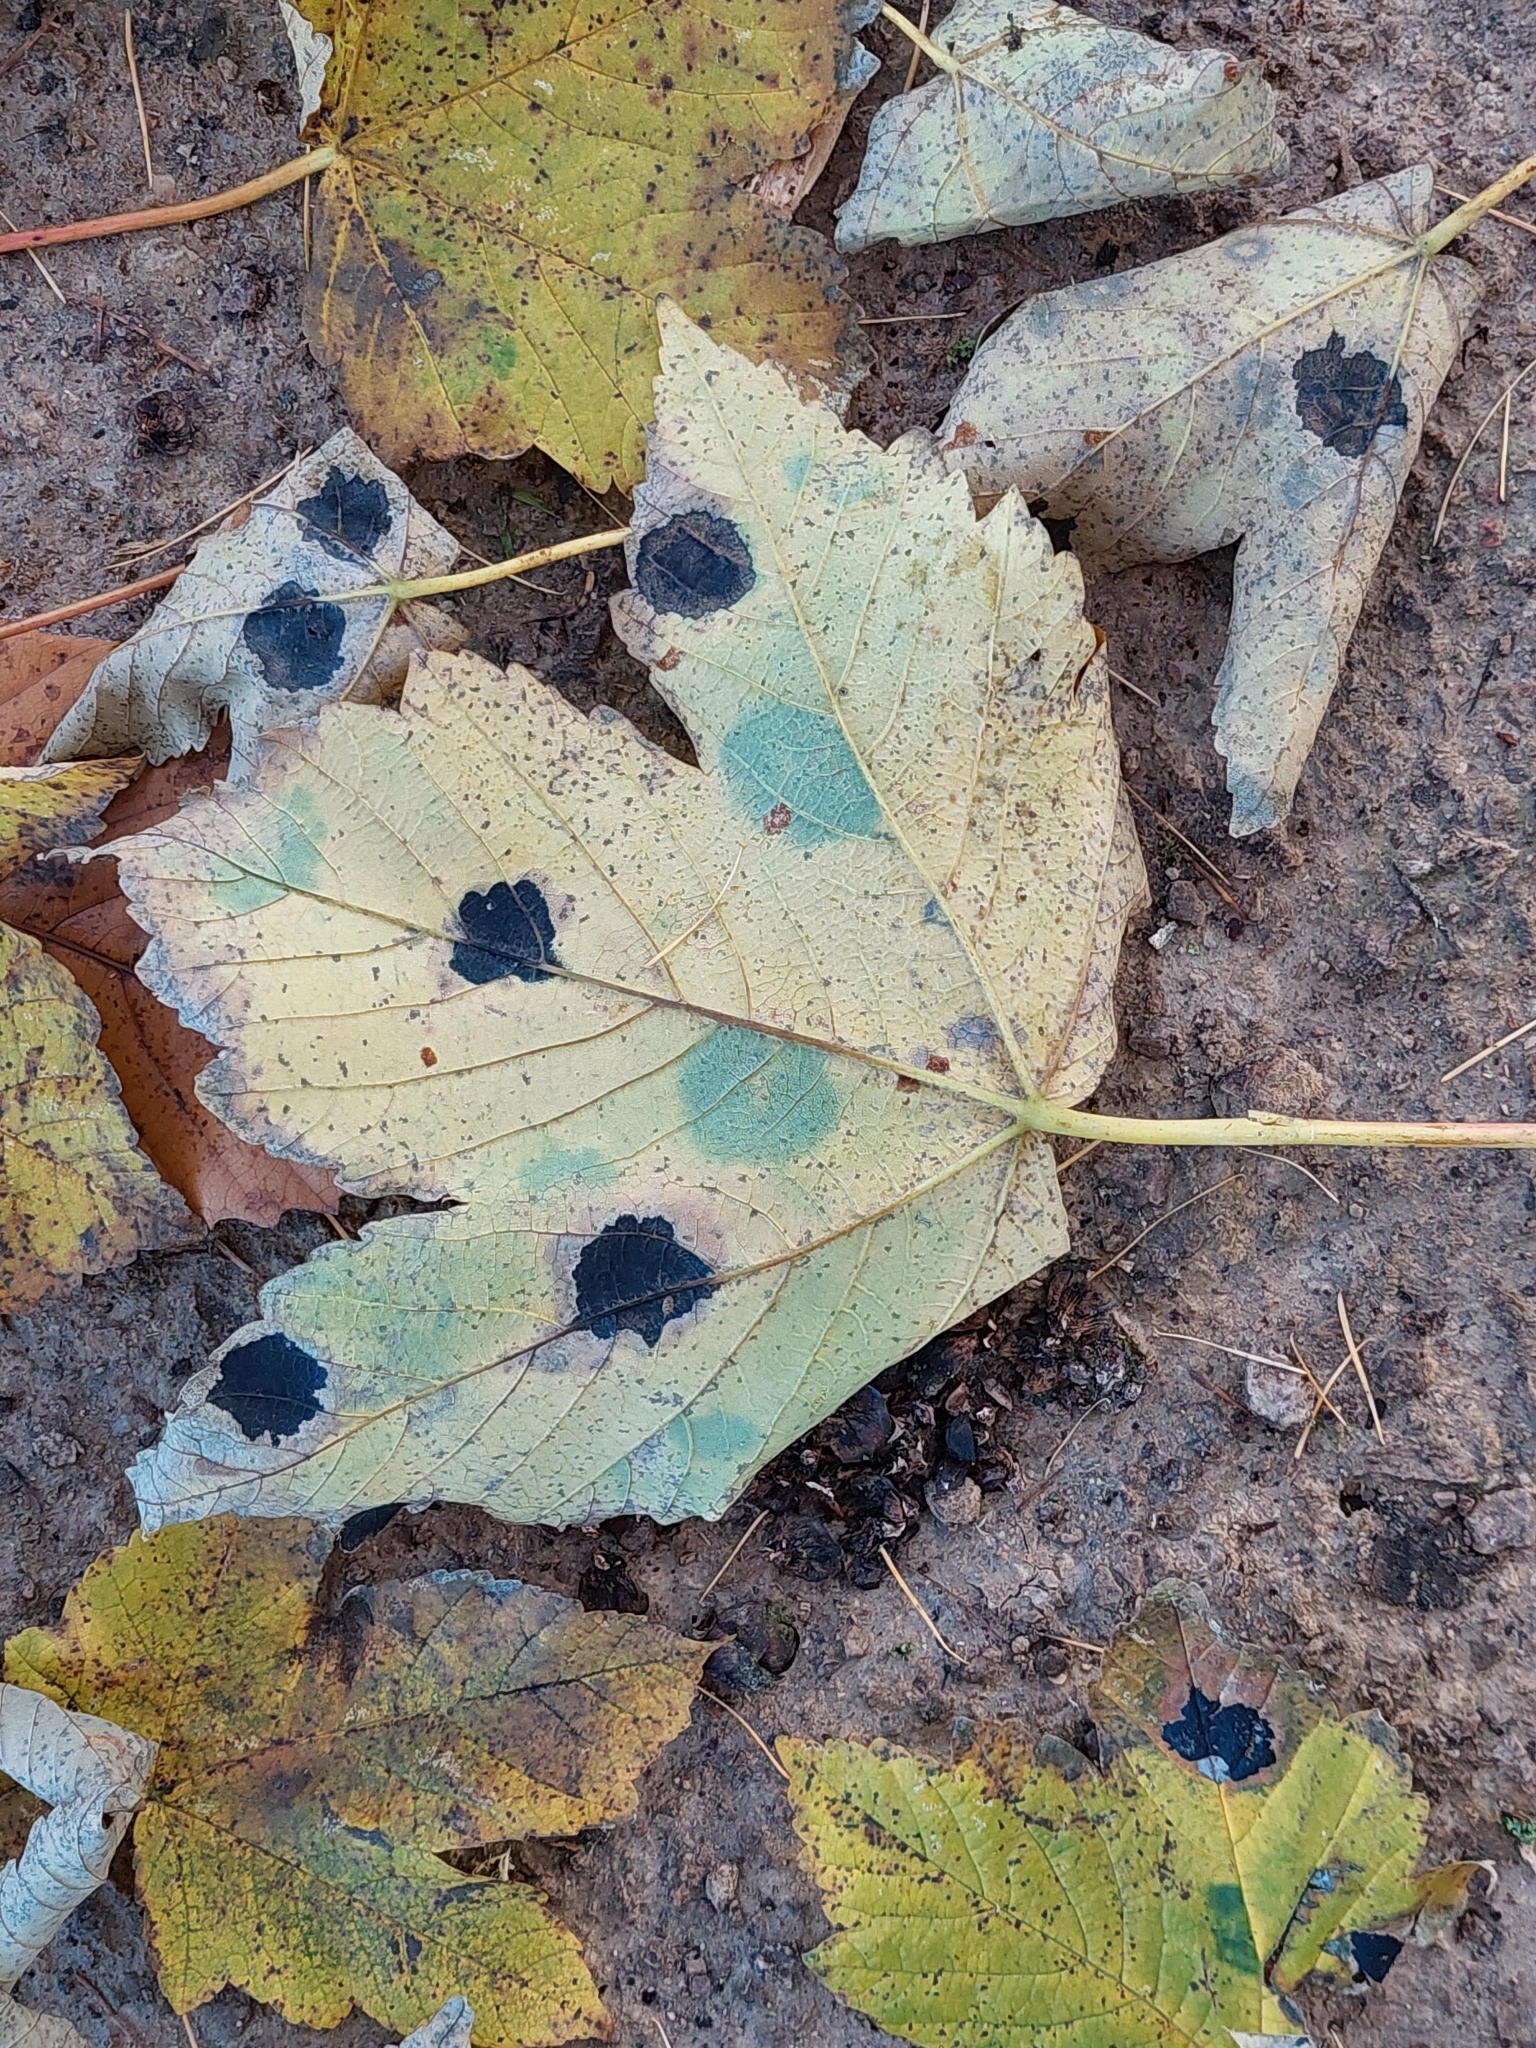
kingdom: Fungi
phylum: Ascomycota
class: Leotiomycetes
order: Rhytismatales
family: Rhytismataceae
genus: Rhytisma
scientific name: Rhytisma acerinum
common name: European tar spot
